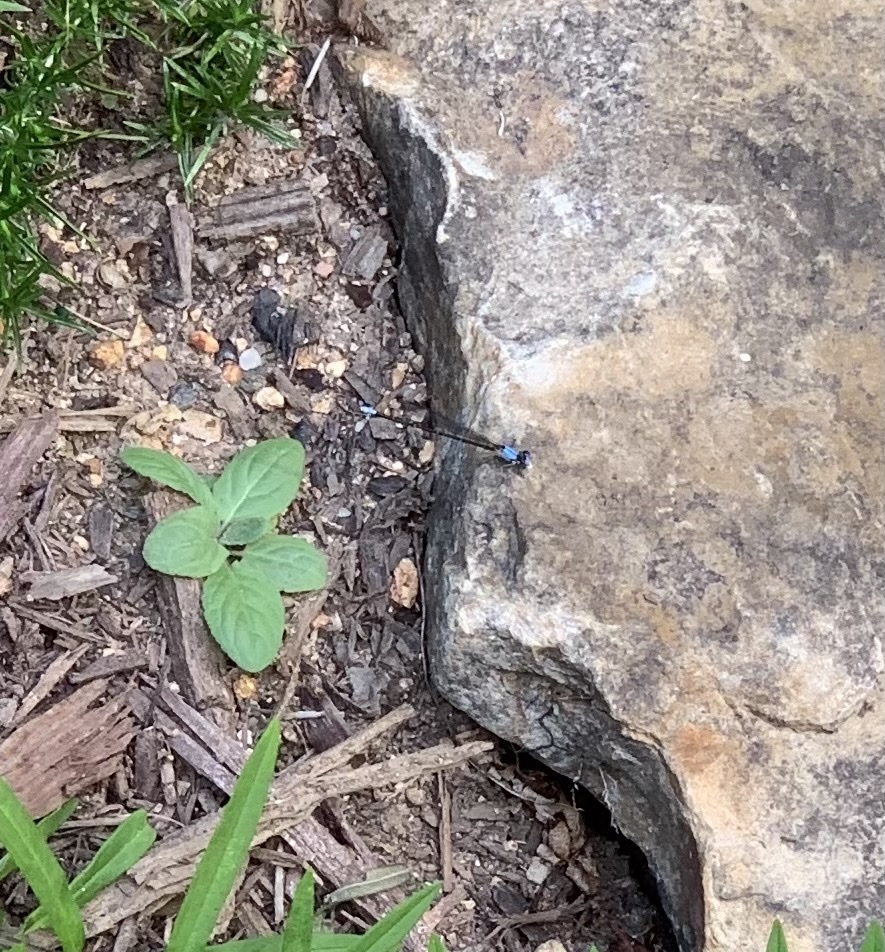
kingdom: Animalia
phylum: Arthropoda
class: Insecta
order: Odonata
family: Coenagrionidae
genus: Argia
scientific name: Argia apicalis
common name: Blue-fronted dancer
